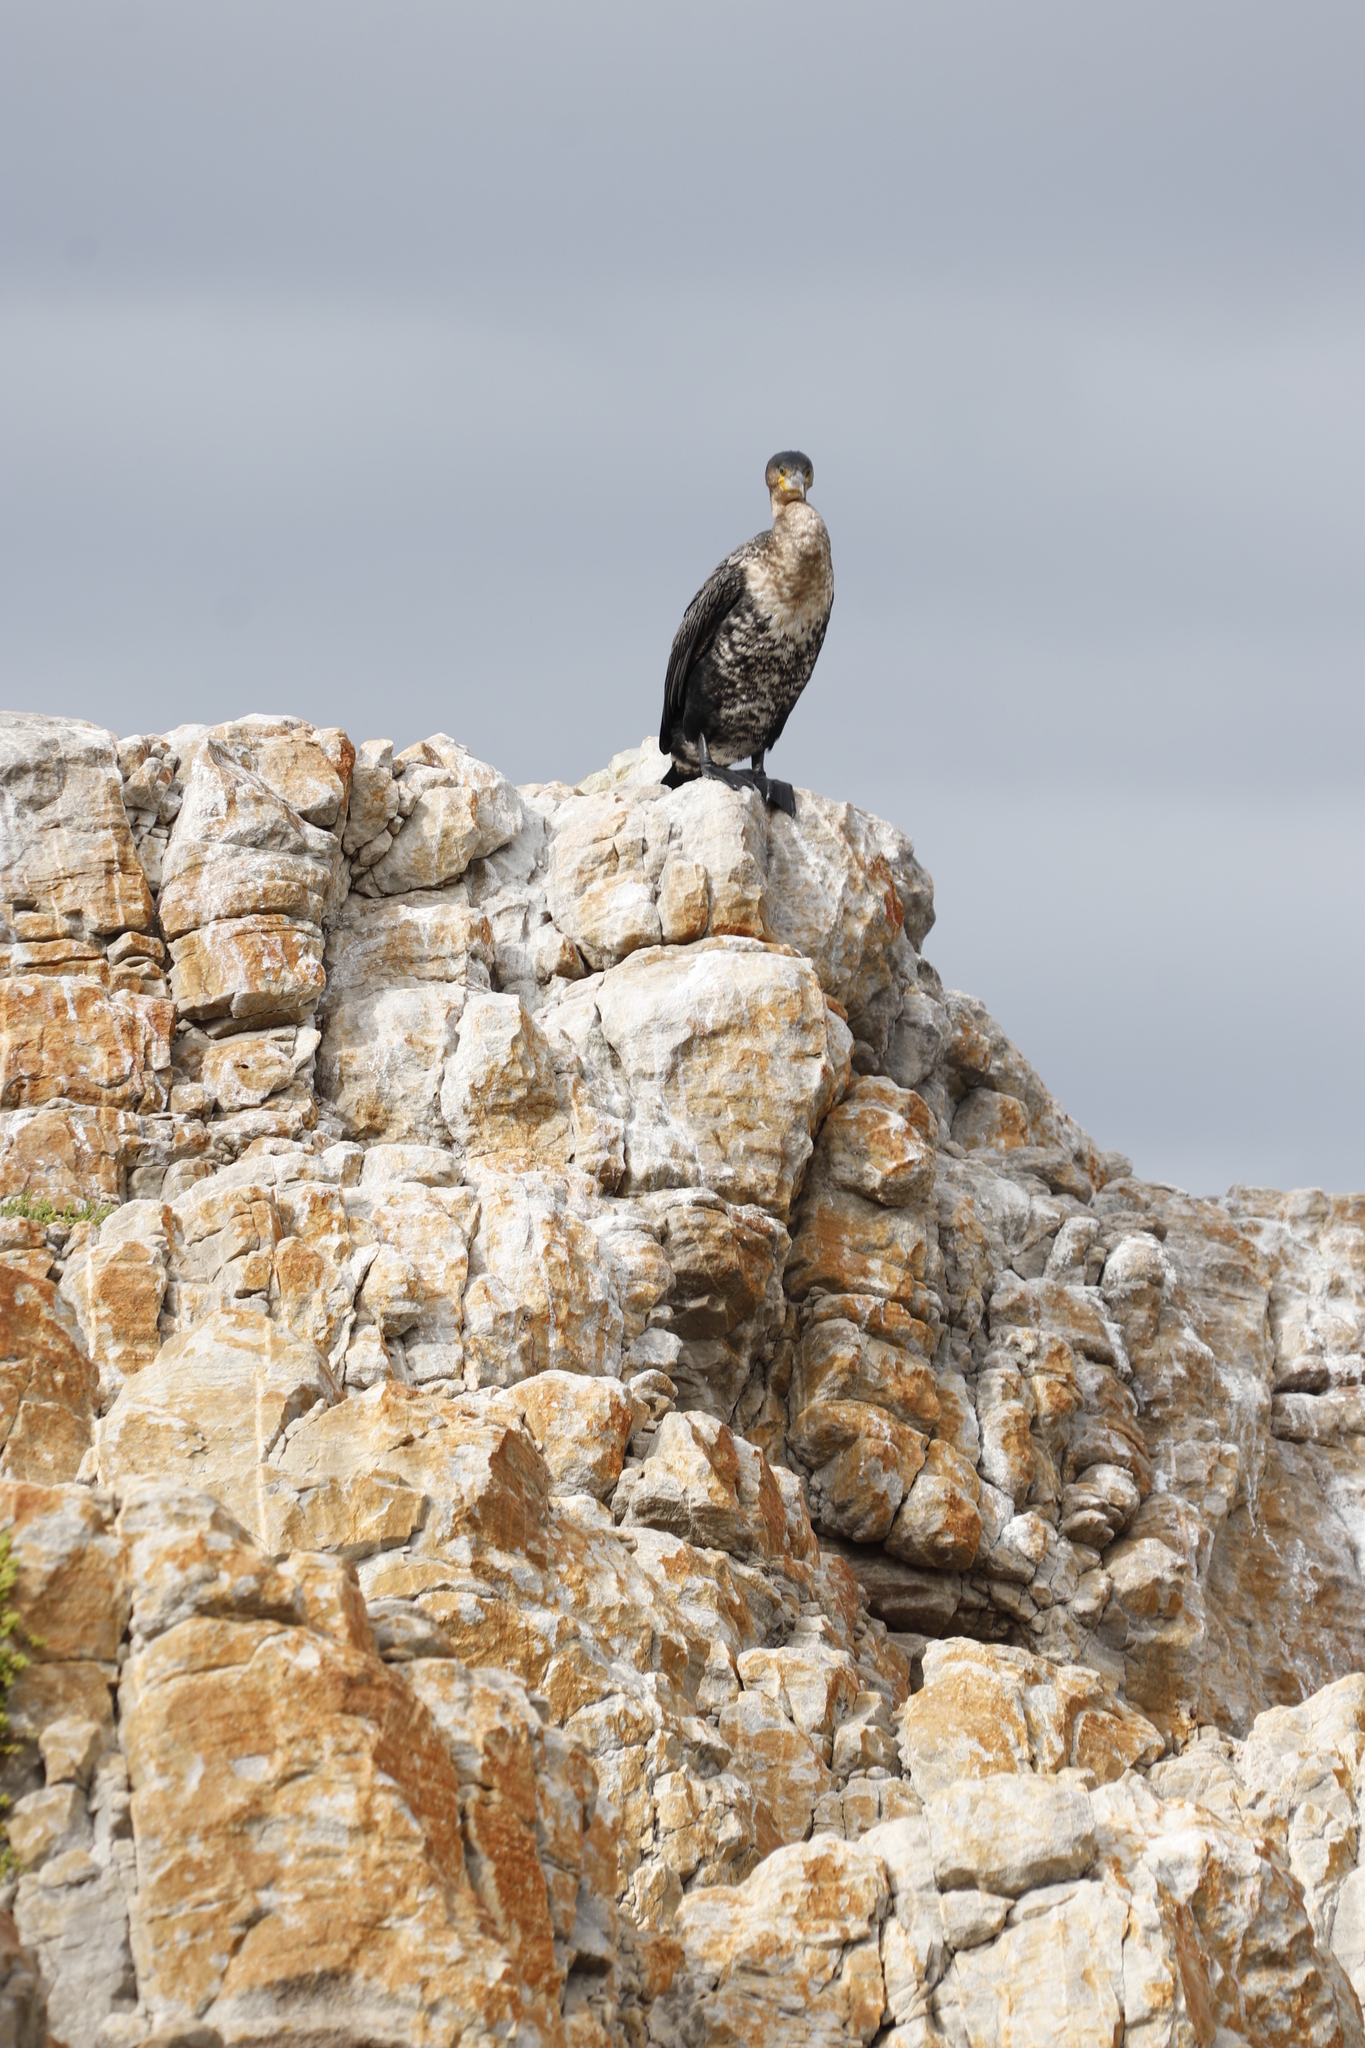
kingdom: Animalia
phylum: Chordata
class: Aves
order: Suliformes
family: Phalacrocoracidae
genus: Phalacrocorax
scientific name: Phalacrocorax carbo
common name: Great cormorant
